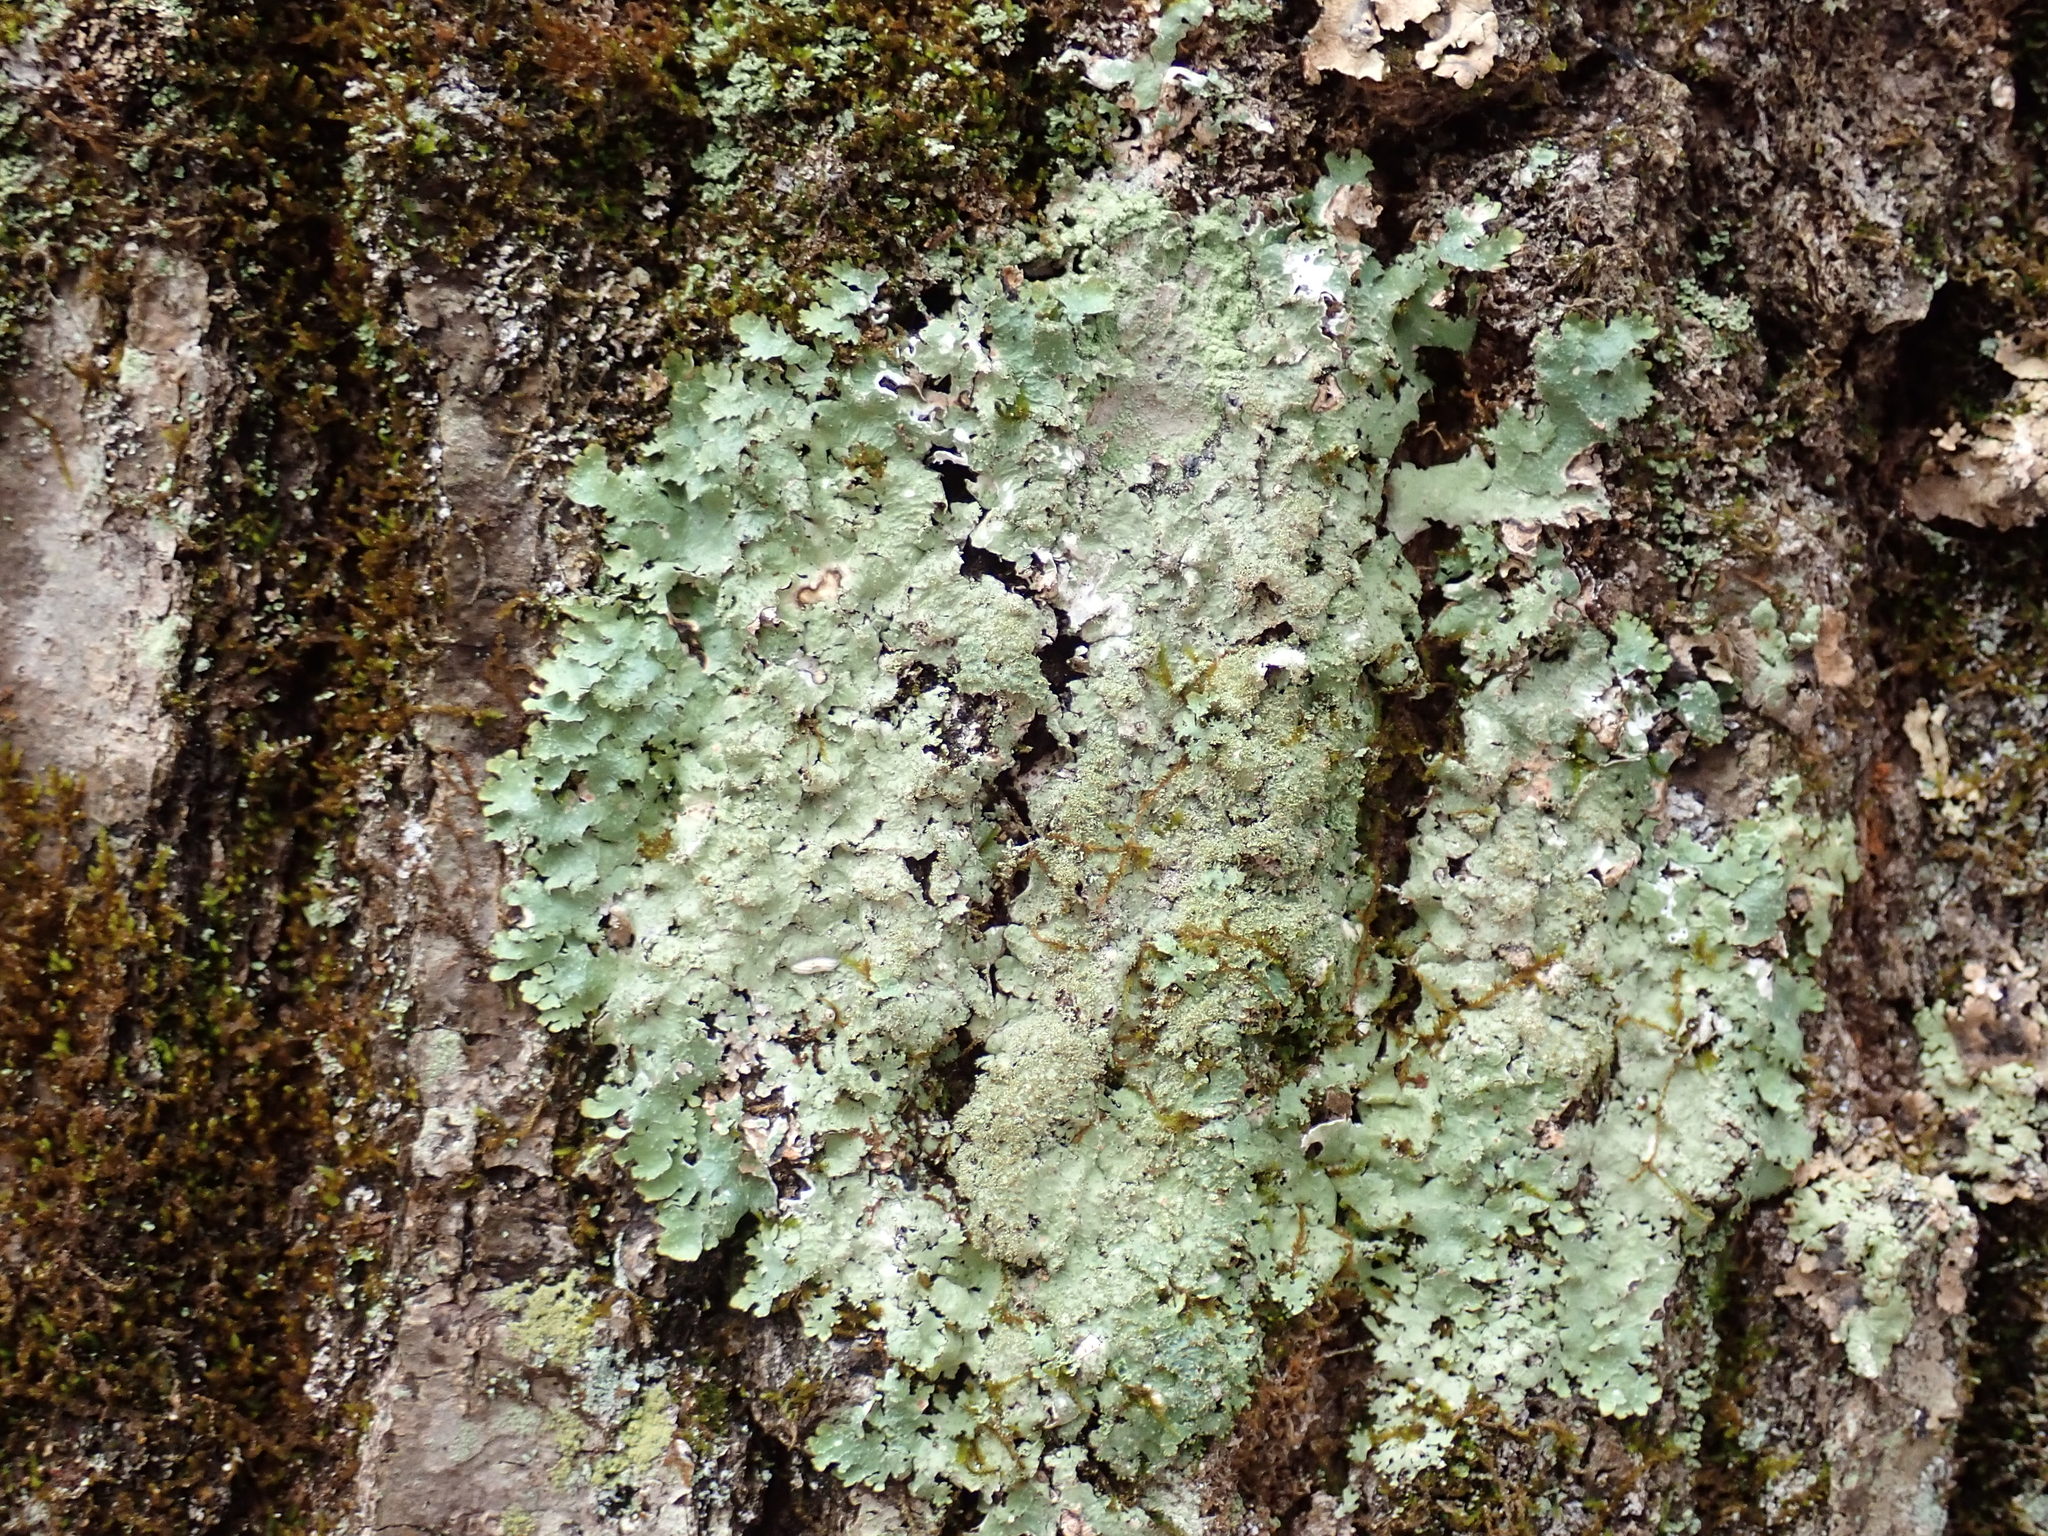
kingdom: Fungi
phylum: Ascomycota
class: Lecanoromycetes
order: Lecanorales
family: Parmeliaceae
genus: Punctelia
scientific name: Punctelia rudecta
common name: Rough speckled shield lichen
